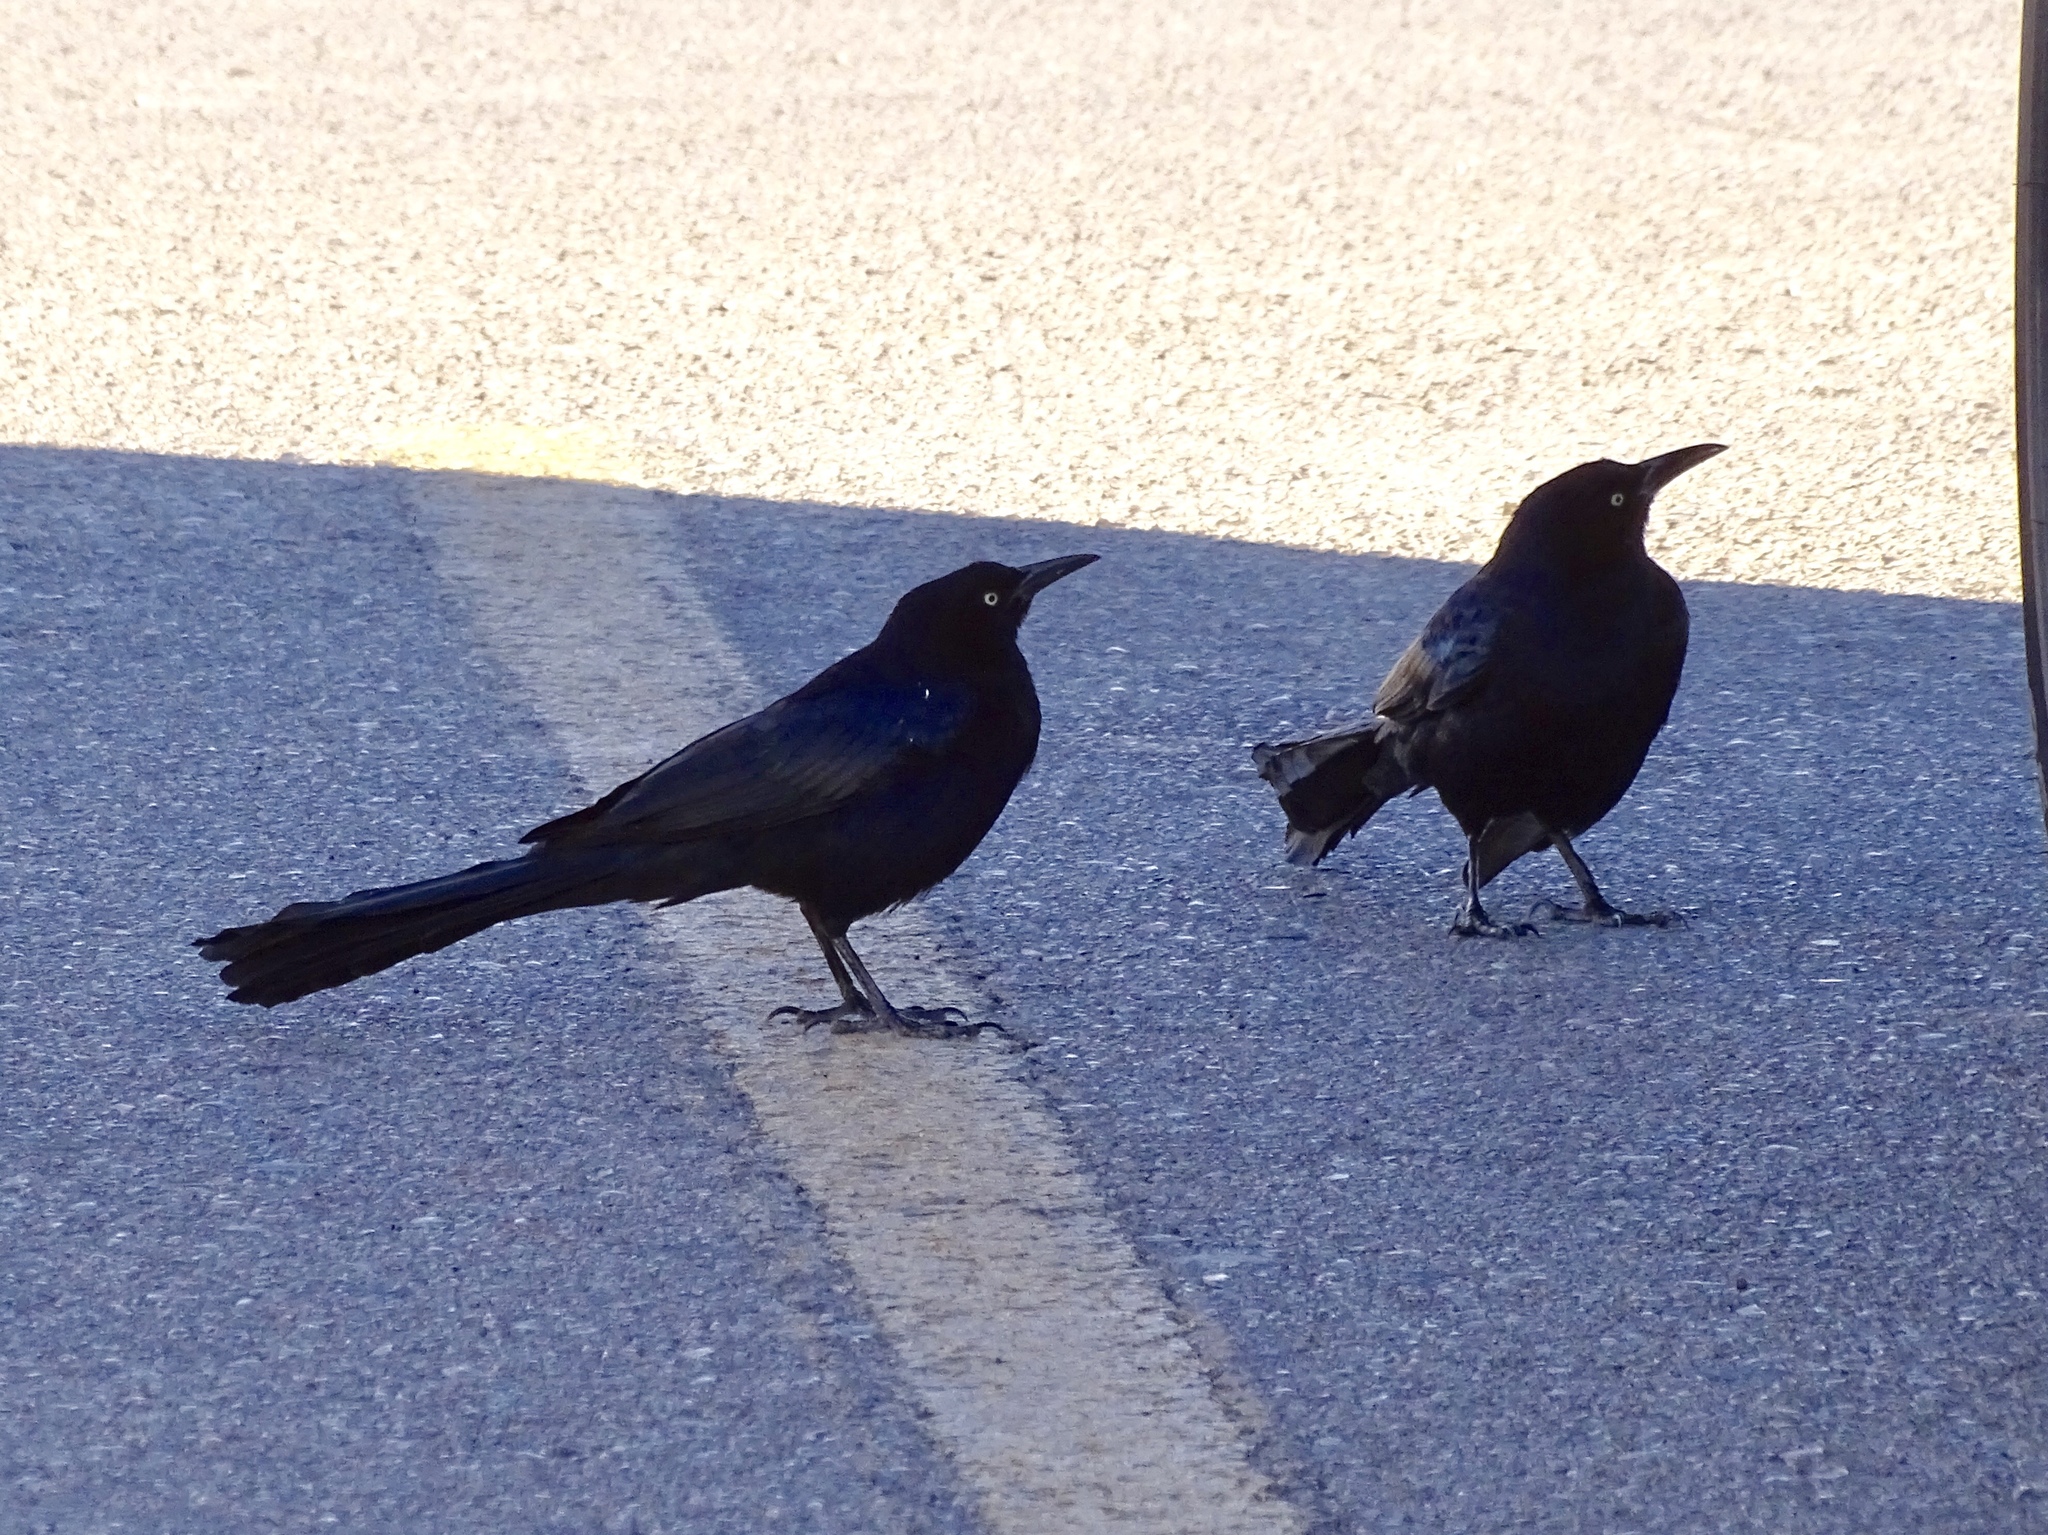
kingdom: Animalia
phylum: Chordata
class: Aves
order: Passeriformes
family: Icteridae
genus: Quiscalus
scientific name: Quiscalus mexicanus
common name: Great-tailed grackle
